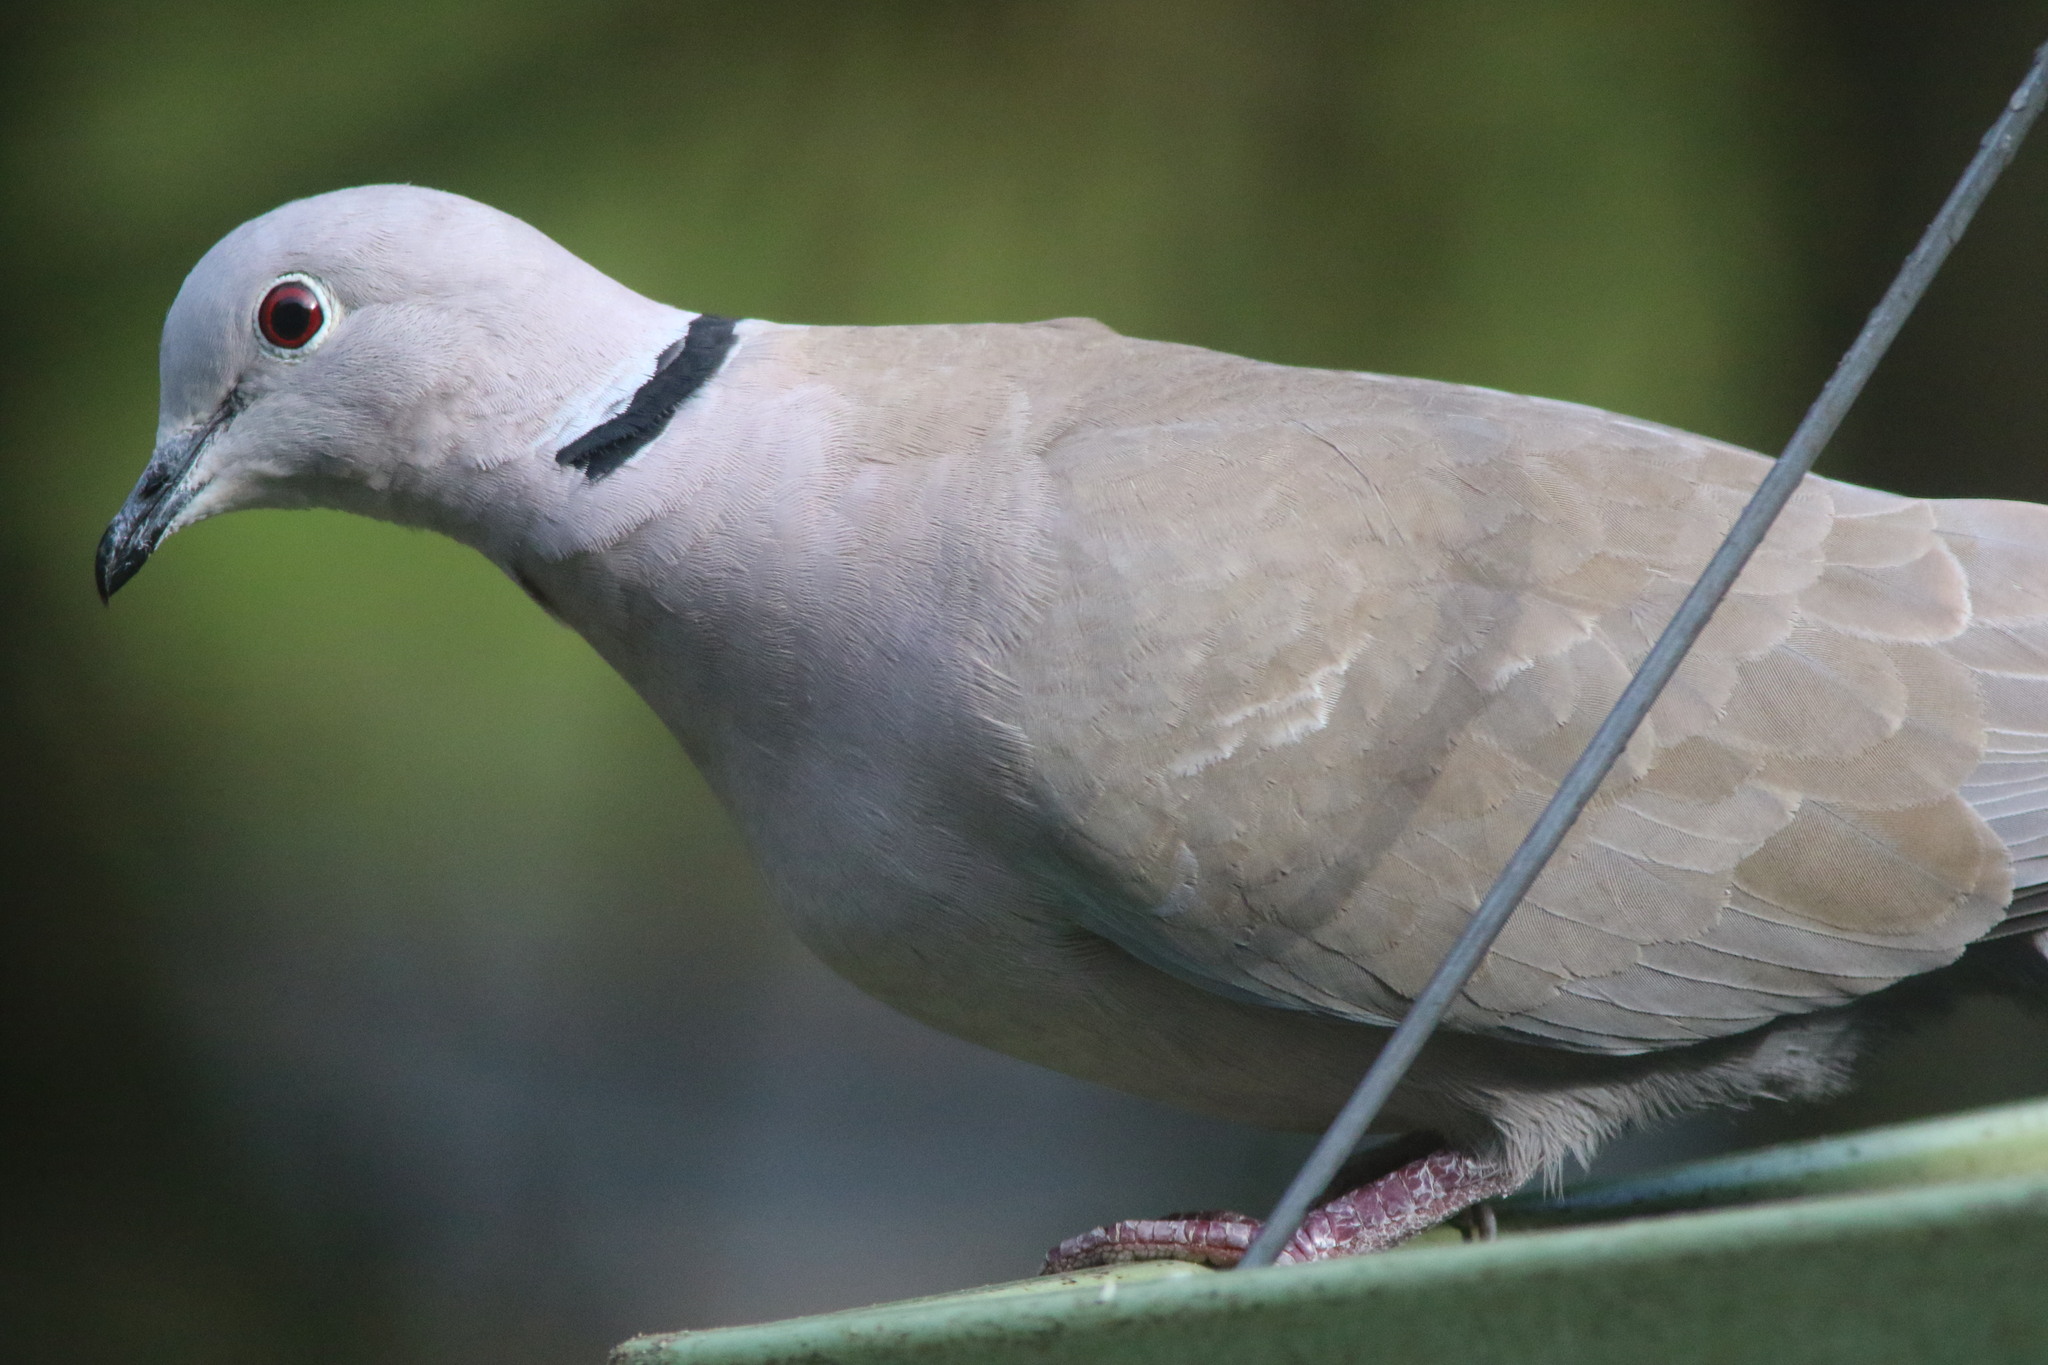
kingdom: Animalia
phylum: Chordata
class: Aves
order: Columbiformes
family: Columbidae
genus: Streptopelia
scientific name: Streptopelia decaocto
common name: Eurasian collared dove
